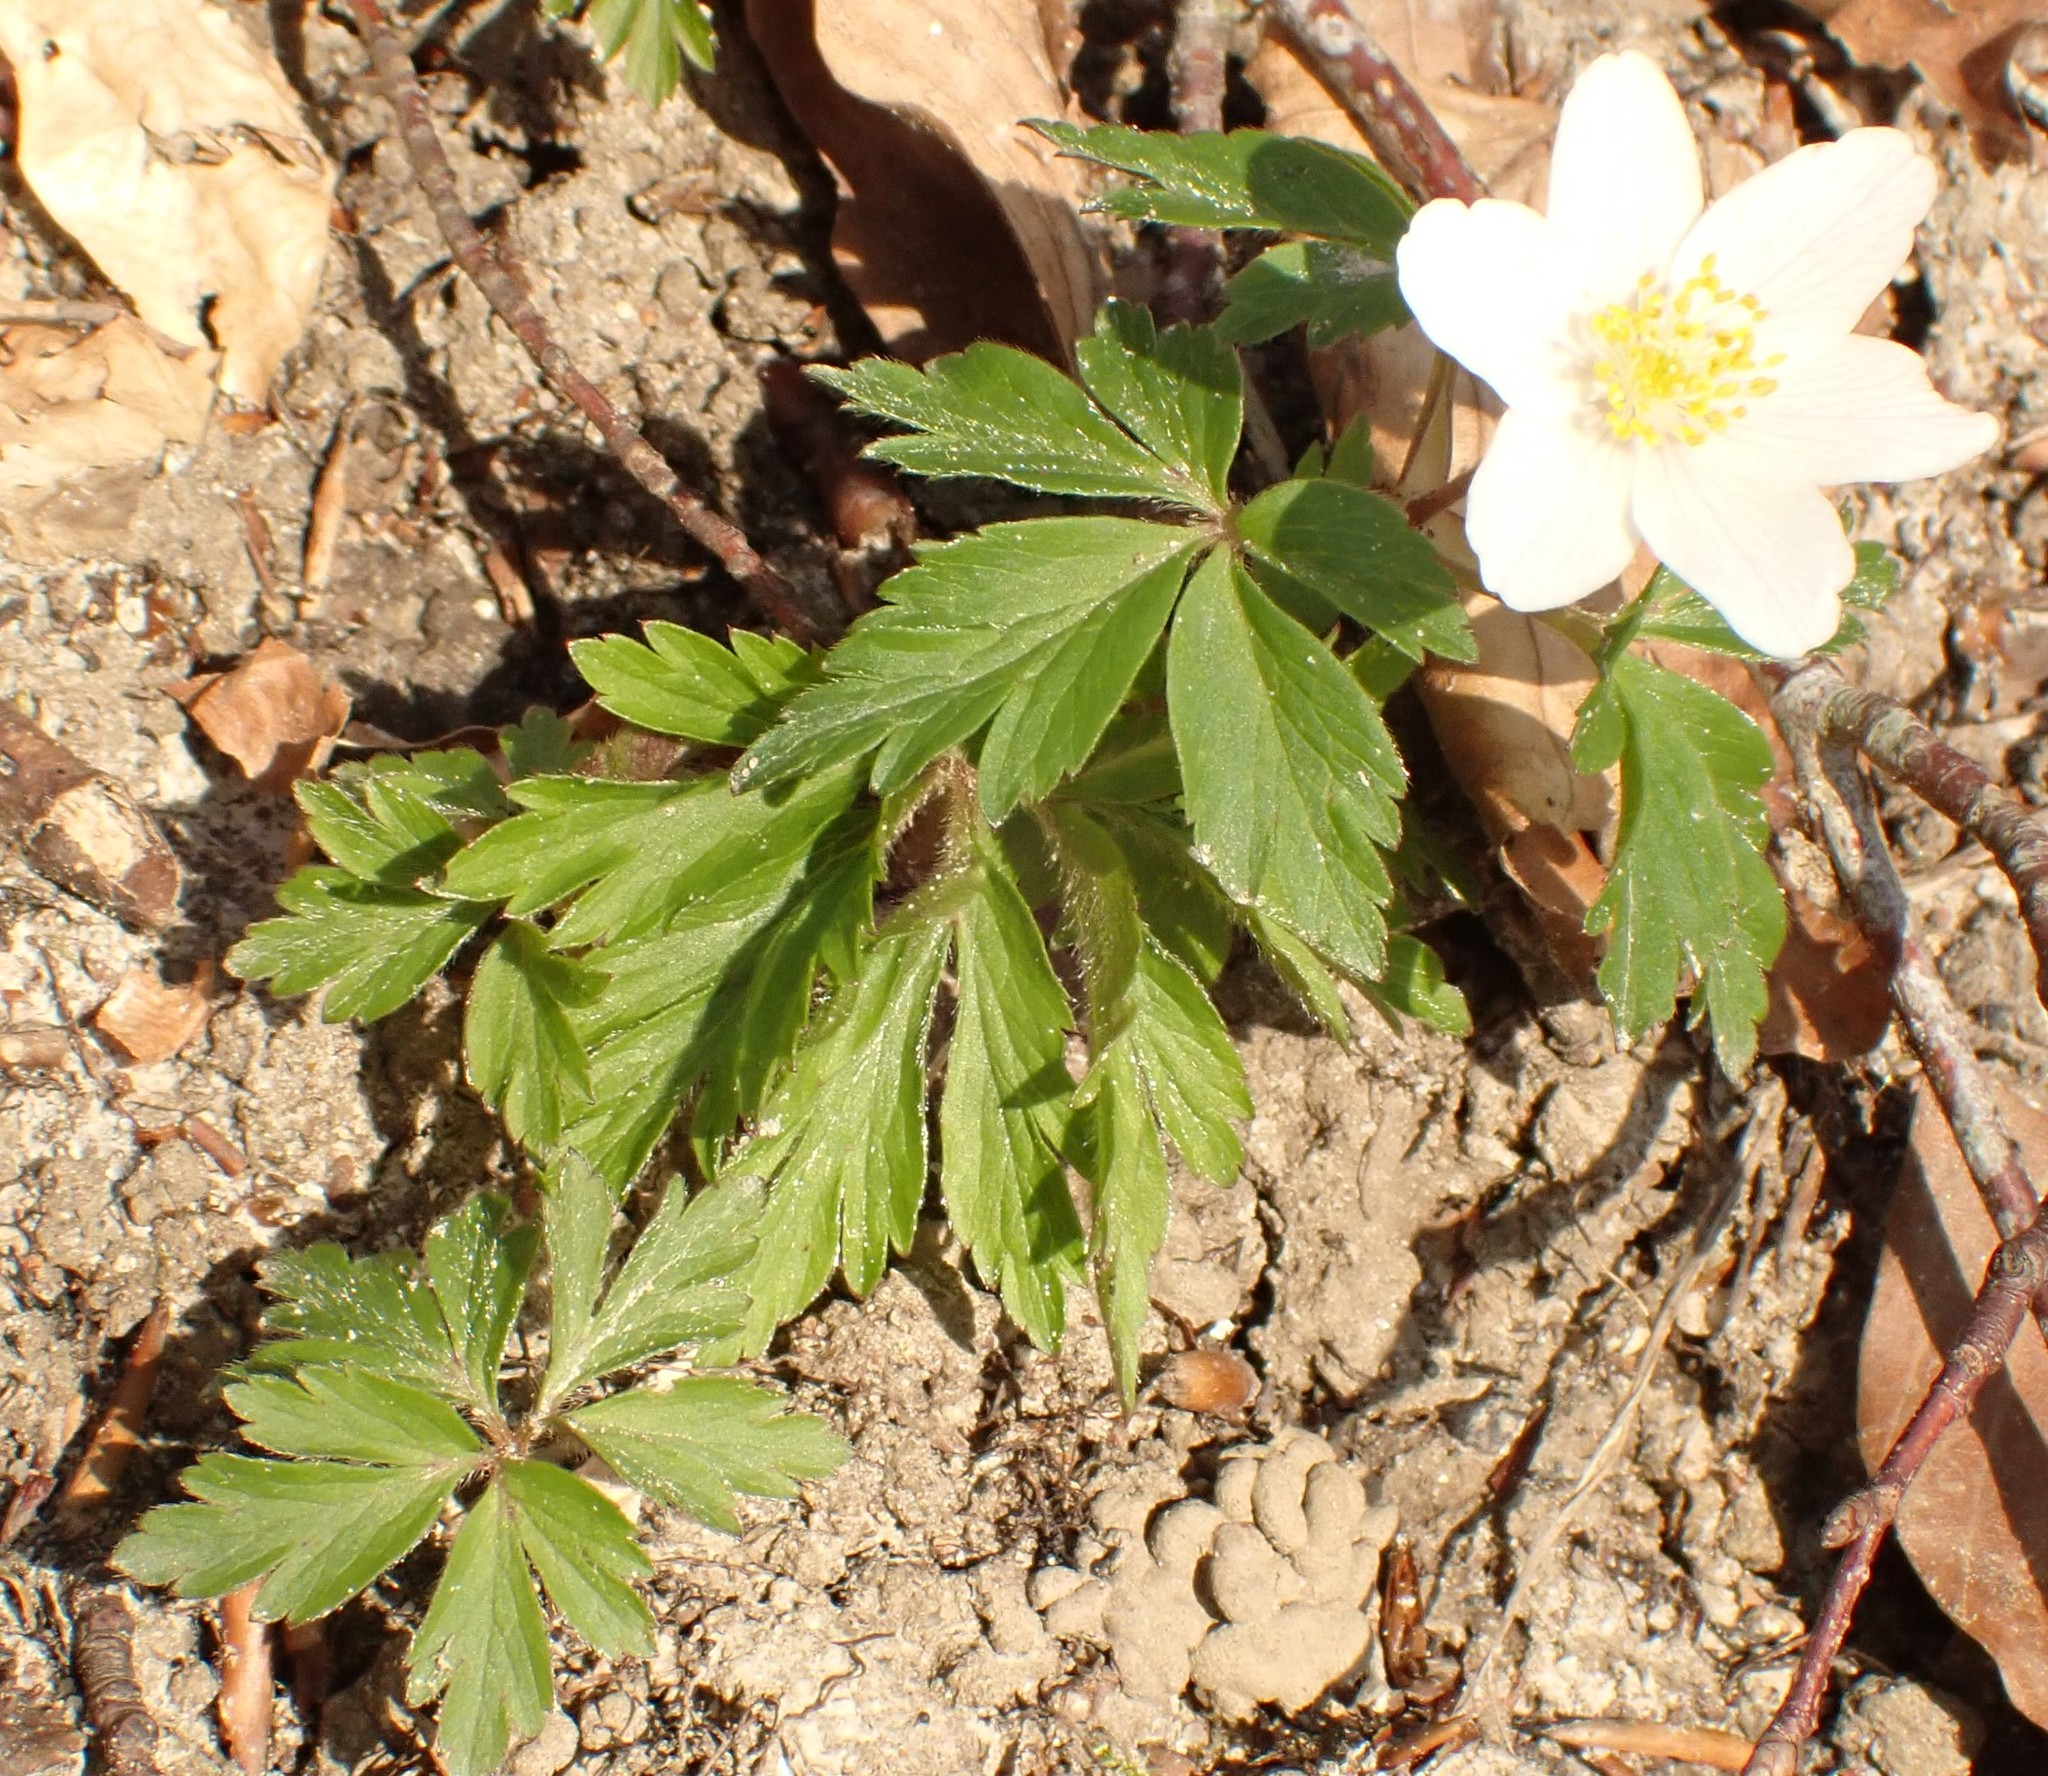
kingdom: Plantae
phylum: Tracheophyta
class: Magnoliopsida
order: Ranunculales
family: Ranunculaceae
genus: Anemone
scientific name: Anemone nemorosa
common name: Wood anemone
